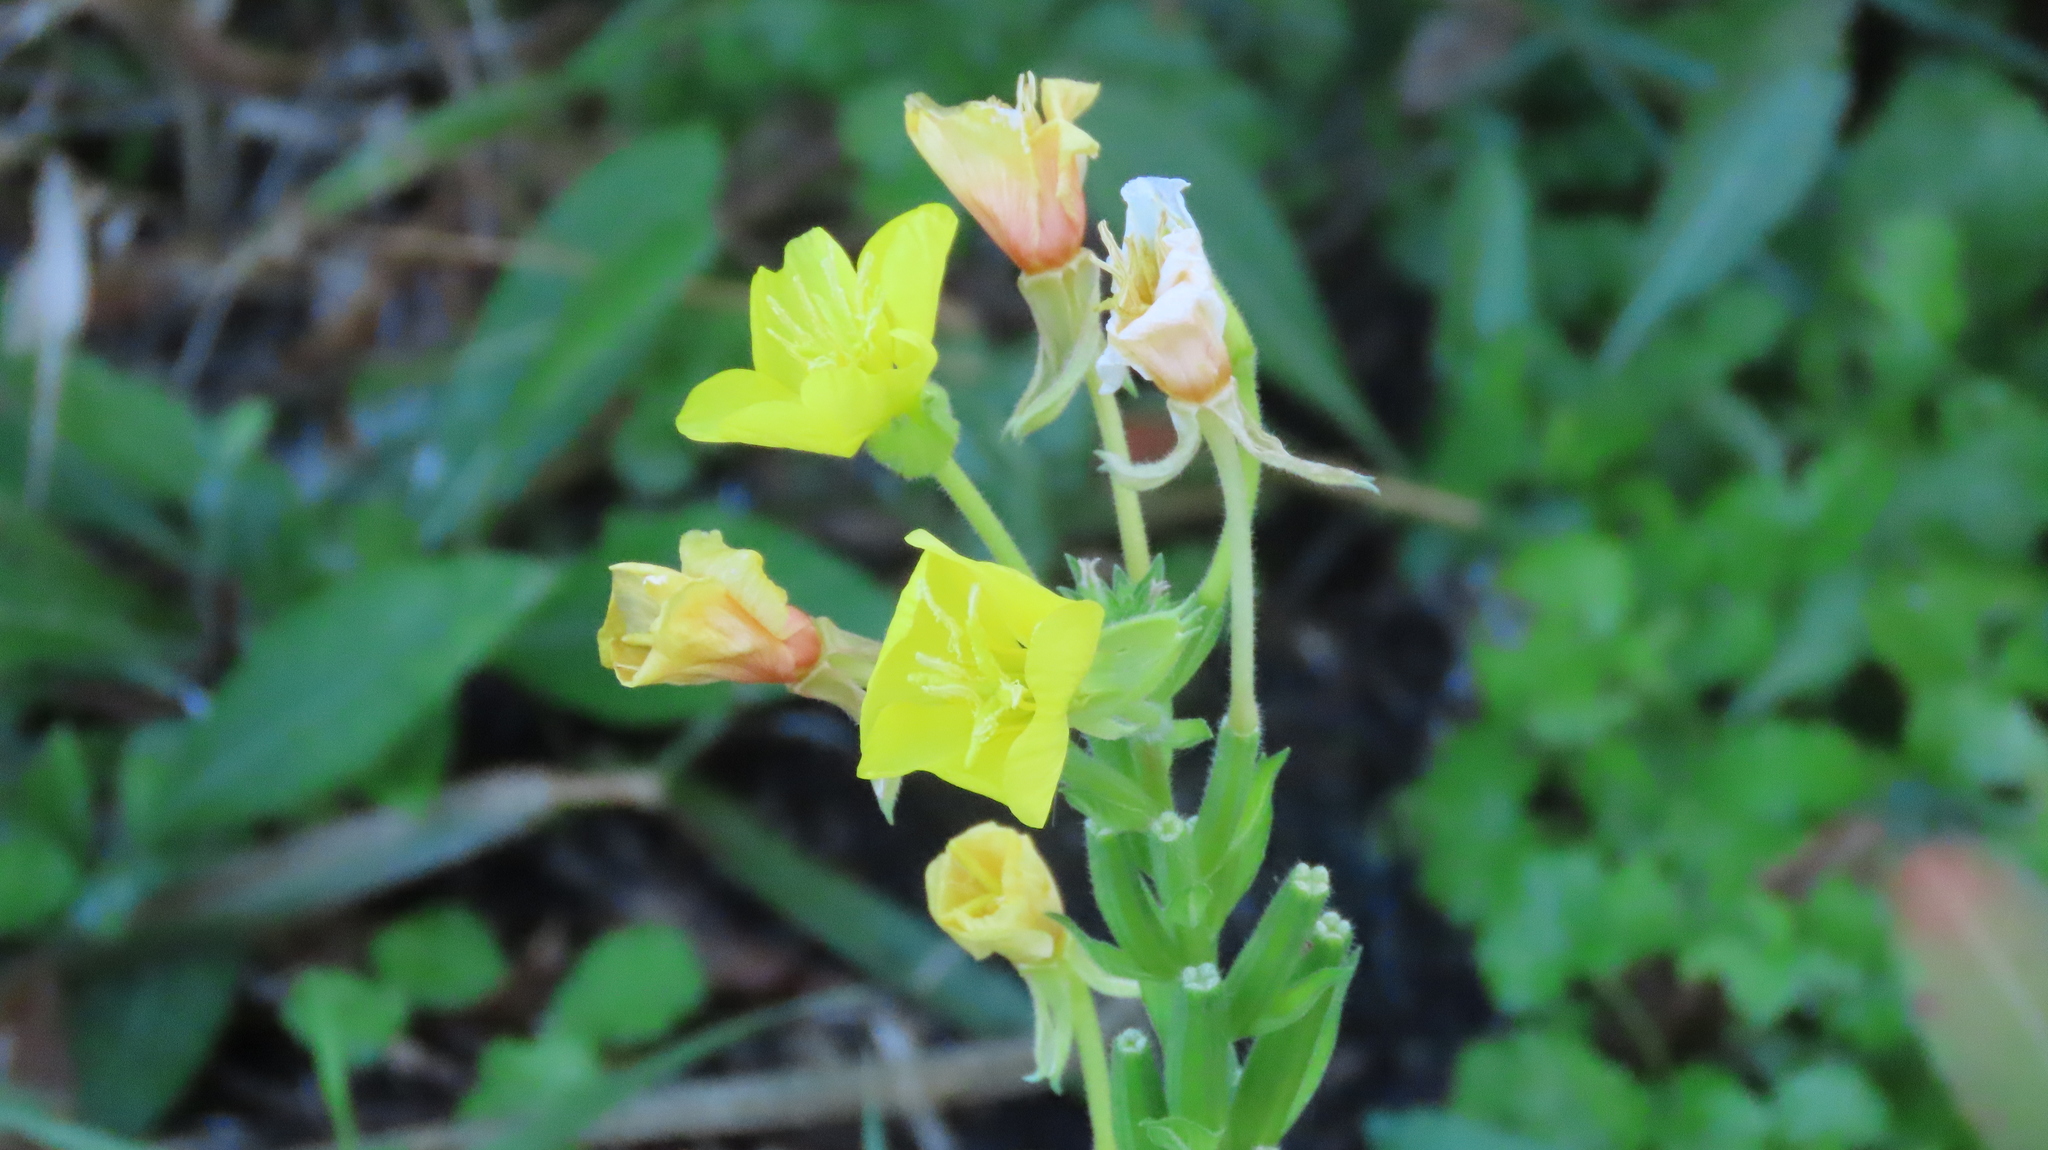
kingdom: Plantae
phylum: Tracheophyta
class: Magnoliopsida
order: Myrtales
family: Onagraceae
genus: Oenothera
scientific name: Oenothera biennis
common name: Common evening-primrose
